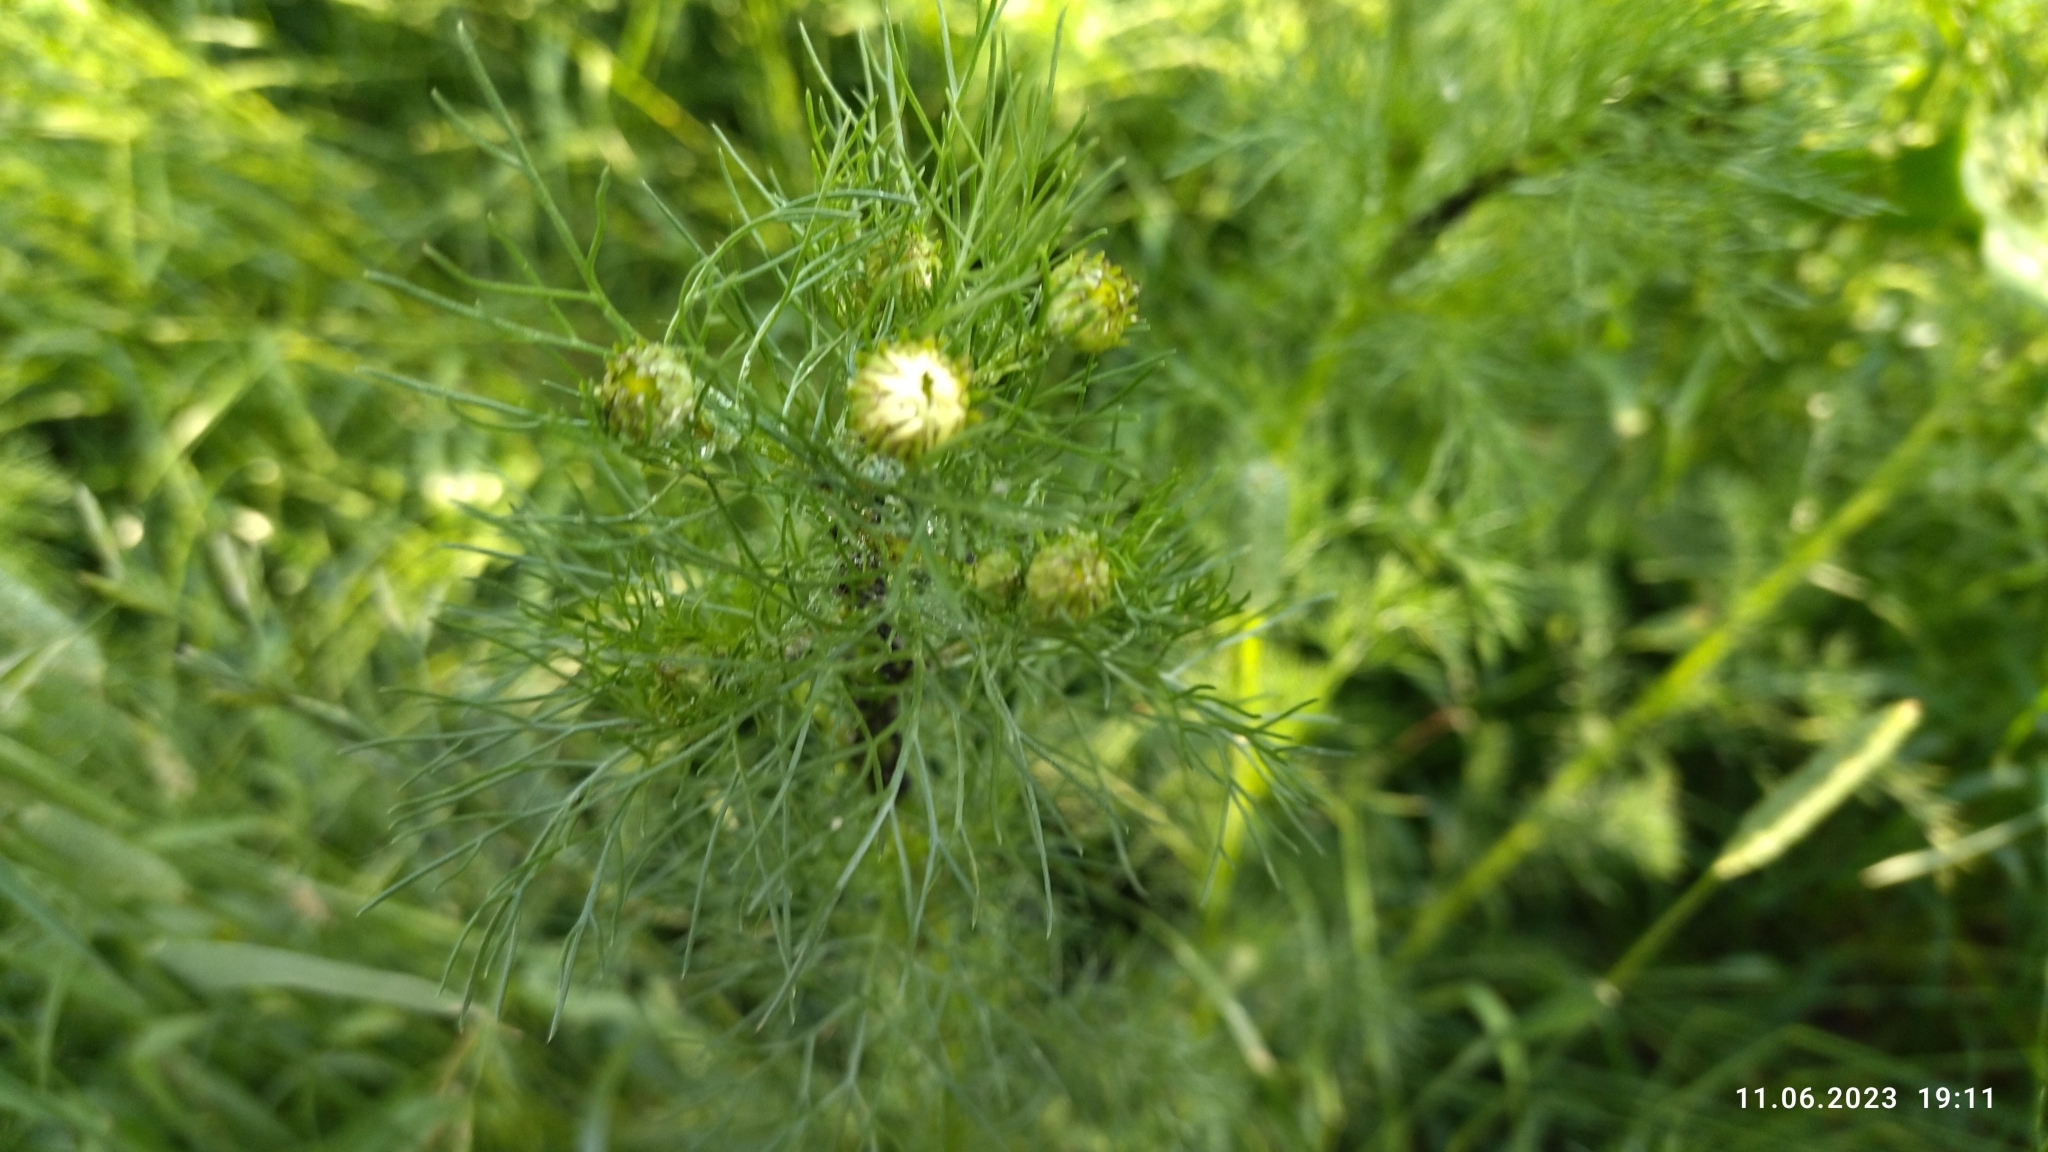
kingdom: Plantae
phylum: Tracheophyta
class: Magnoliopsida
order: Asterales
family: Asteraceae
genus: Tripleurospermum
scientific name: Tripleurospermum inodorum
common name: Scentless mayweed
